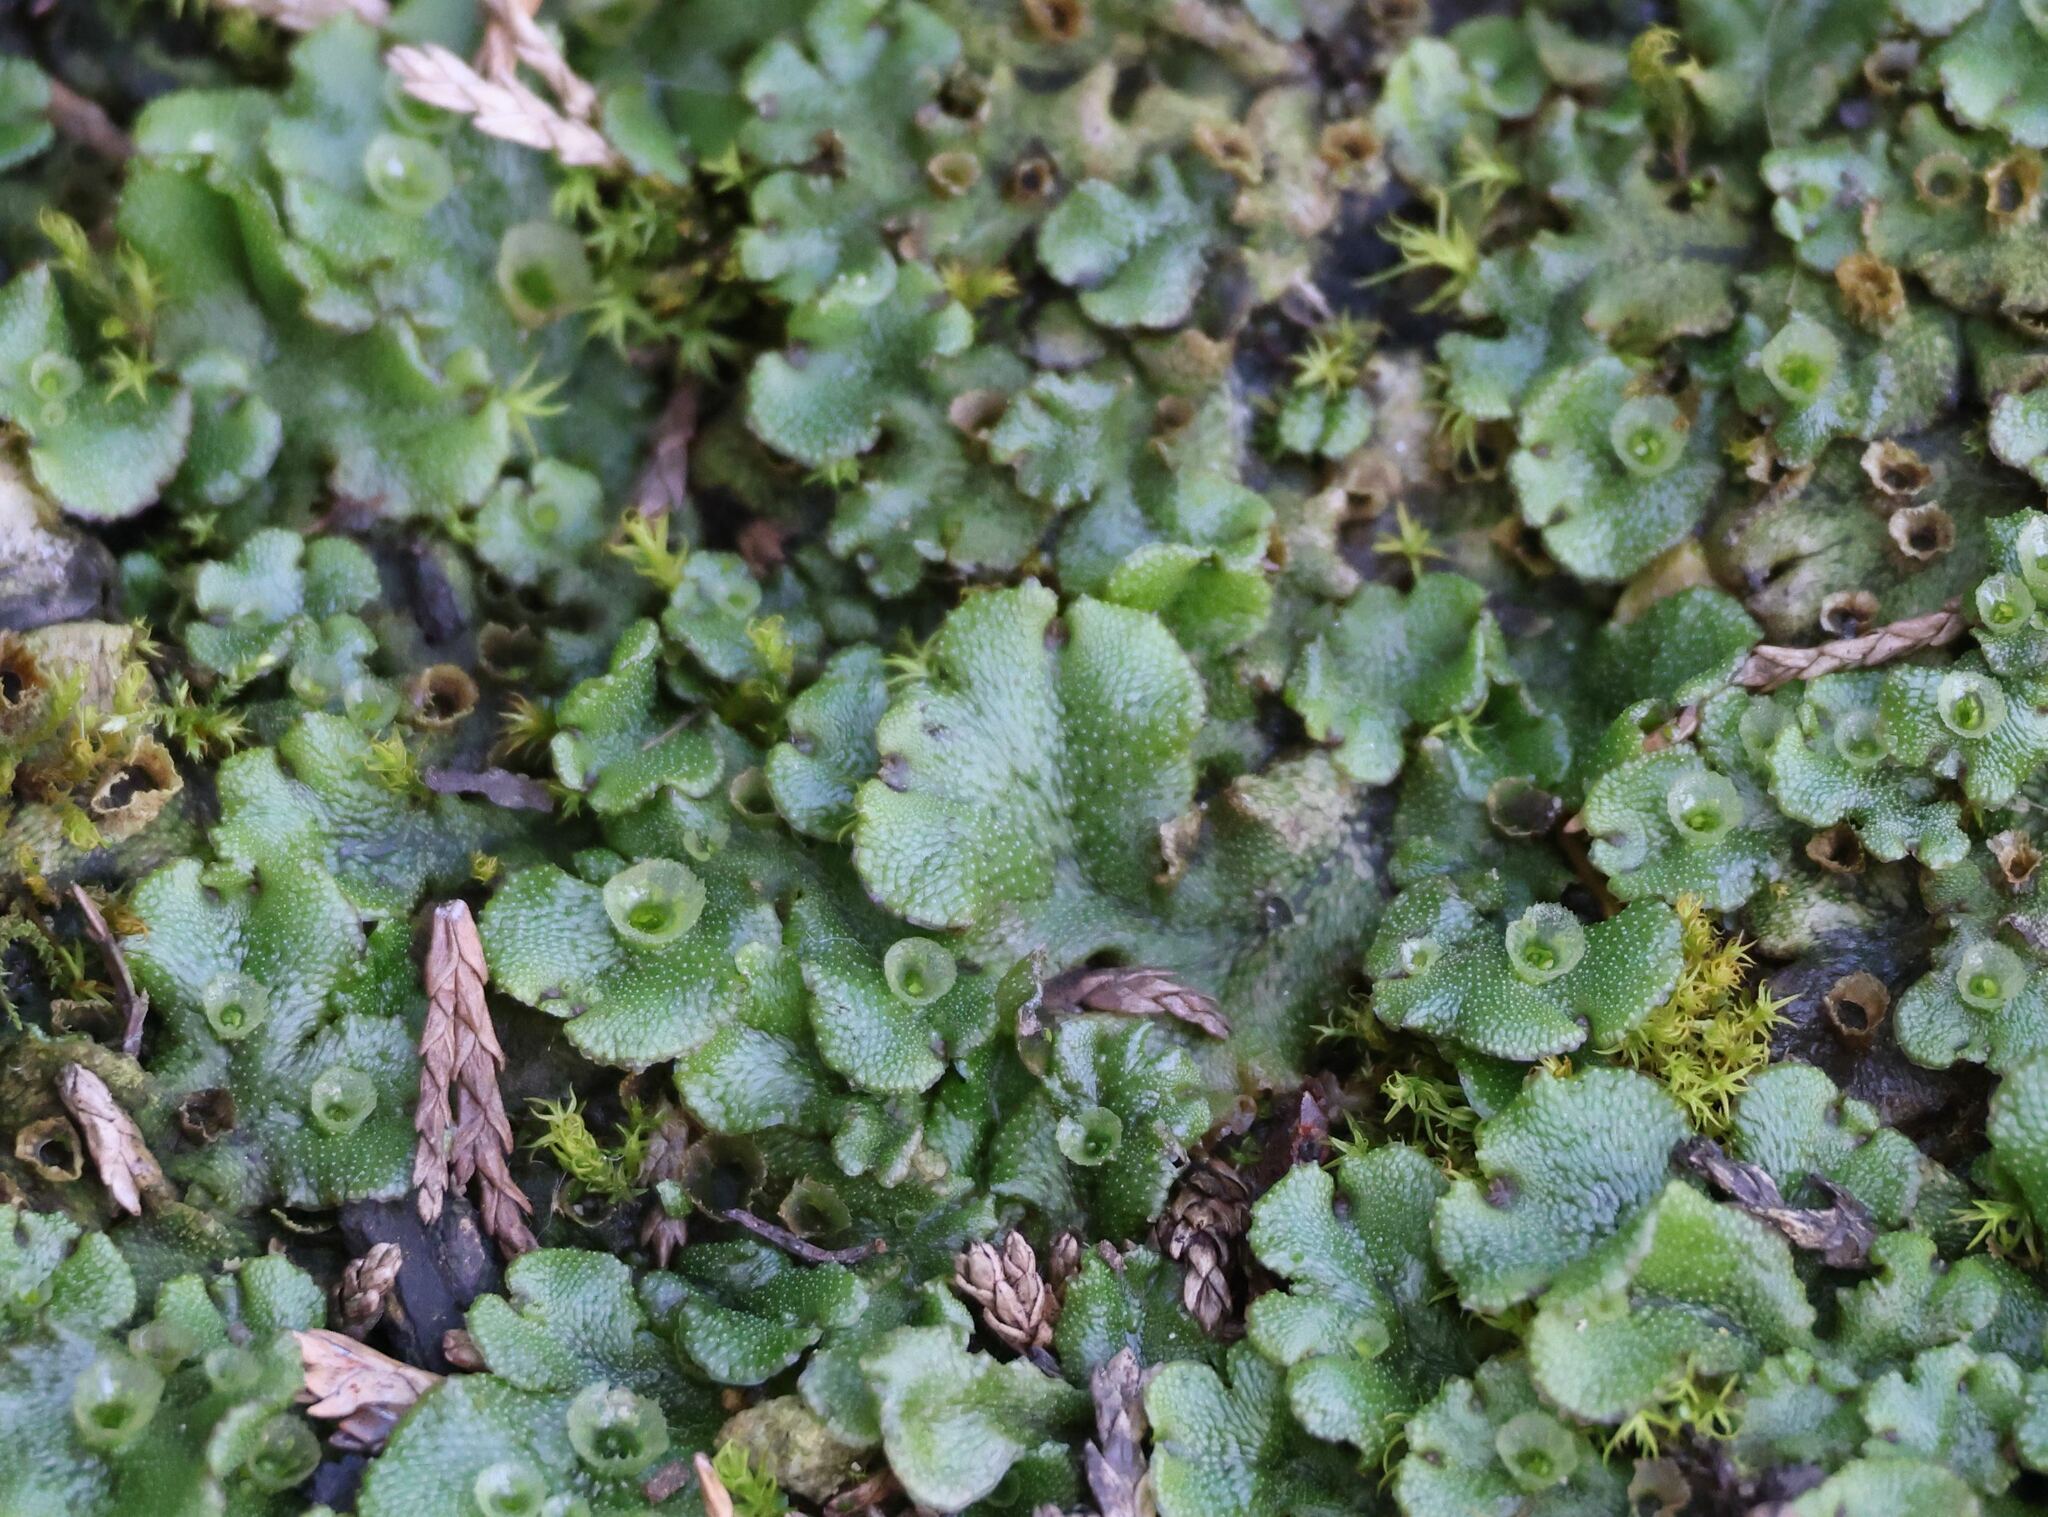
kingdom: Plantae
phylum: Marchantiophyta
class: Marchantiopsida
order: Marchantiales
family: Marchantiaceae
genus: Marchantia
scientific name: Marchantia polymorpha
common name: Common liverwort
